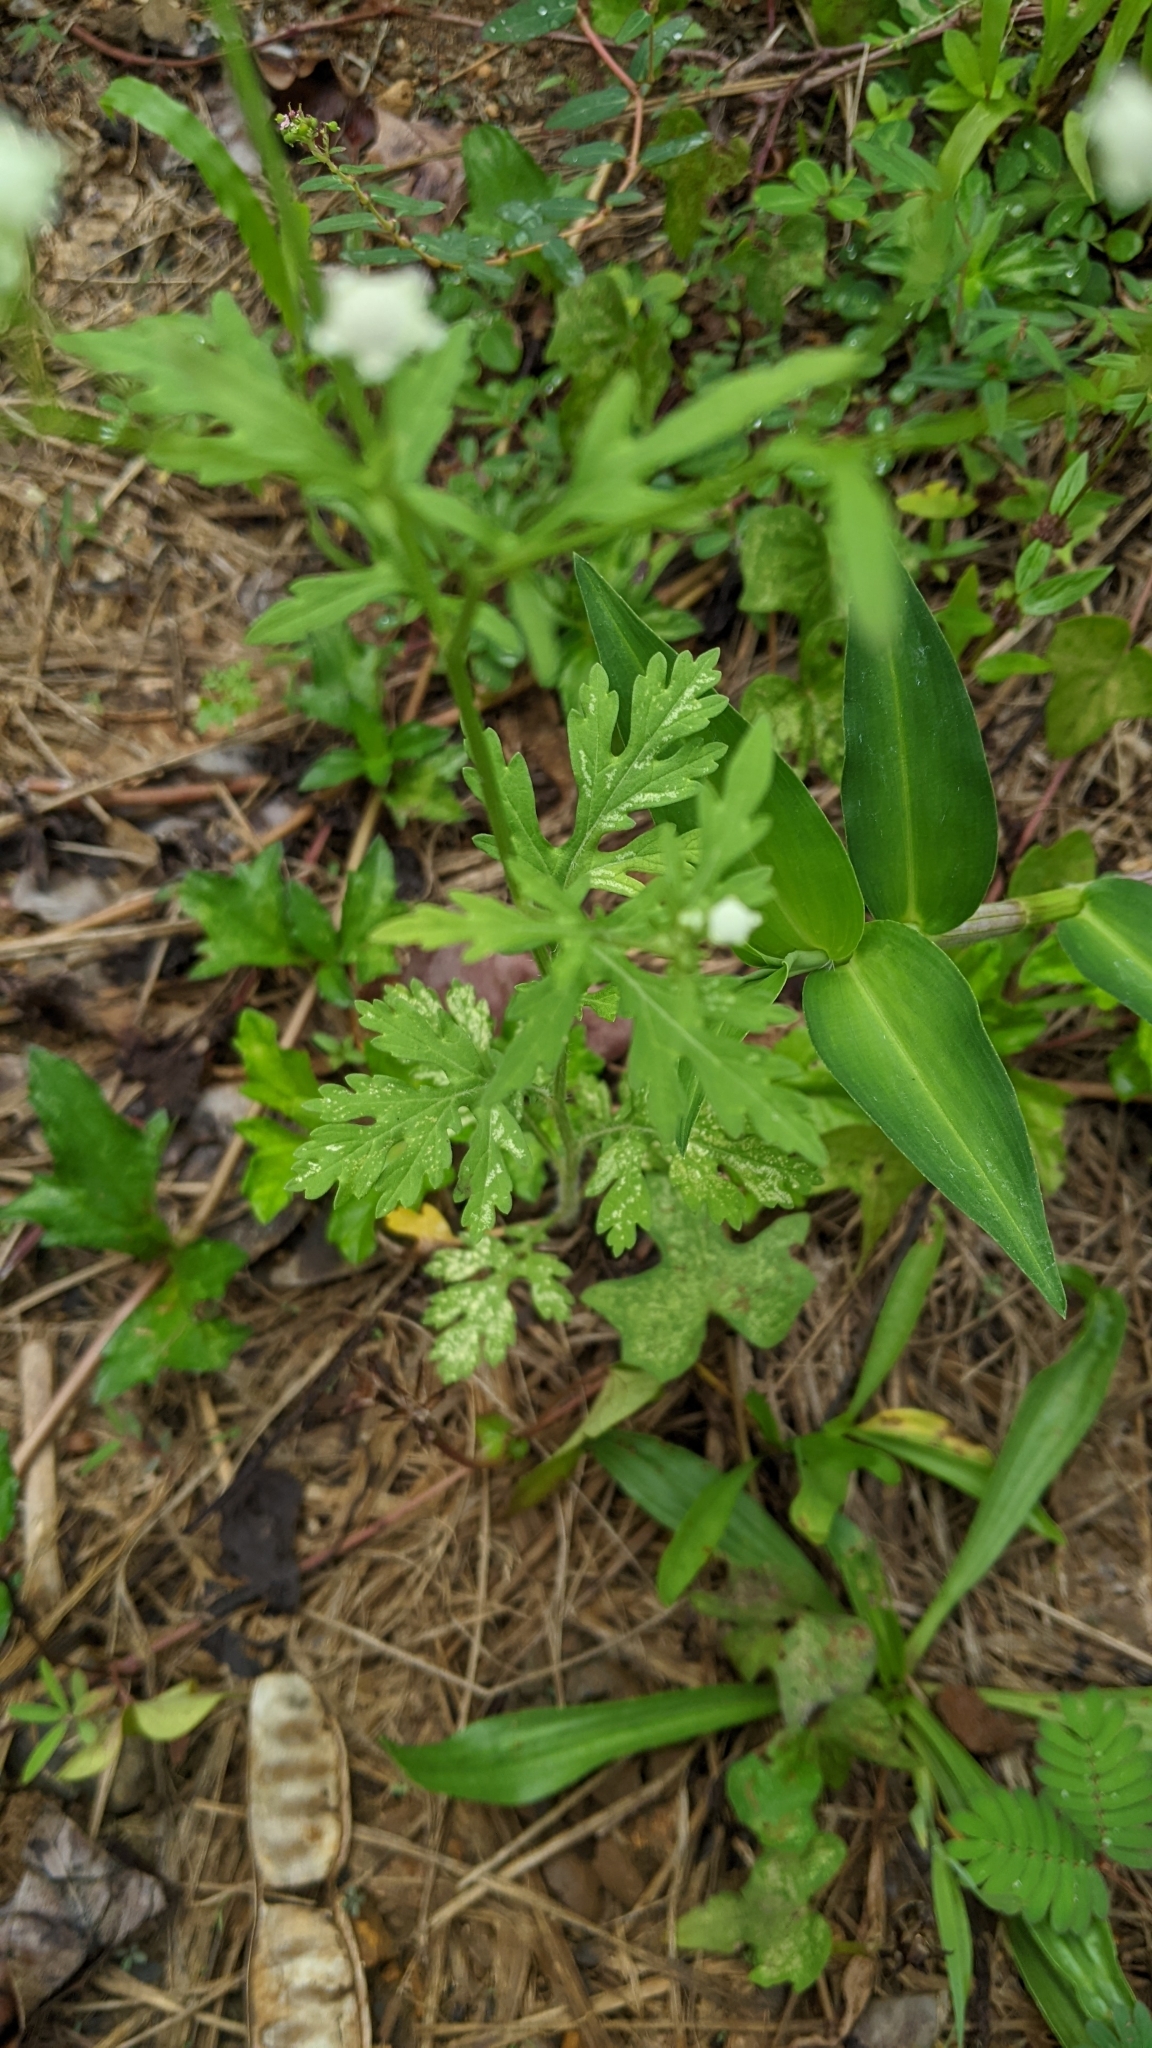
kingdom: Plantae
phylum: Tracheophyta
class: Magnoliopsida
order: Asterales
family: Asteraceae
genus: Parthenium
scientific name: Parthenium hysterophorus
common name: Santa maria feverfew
